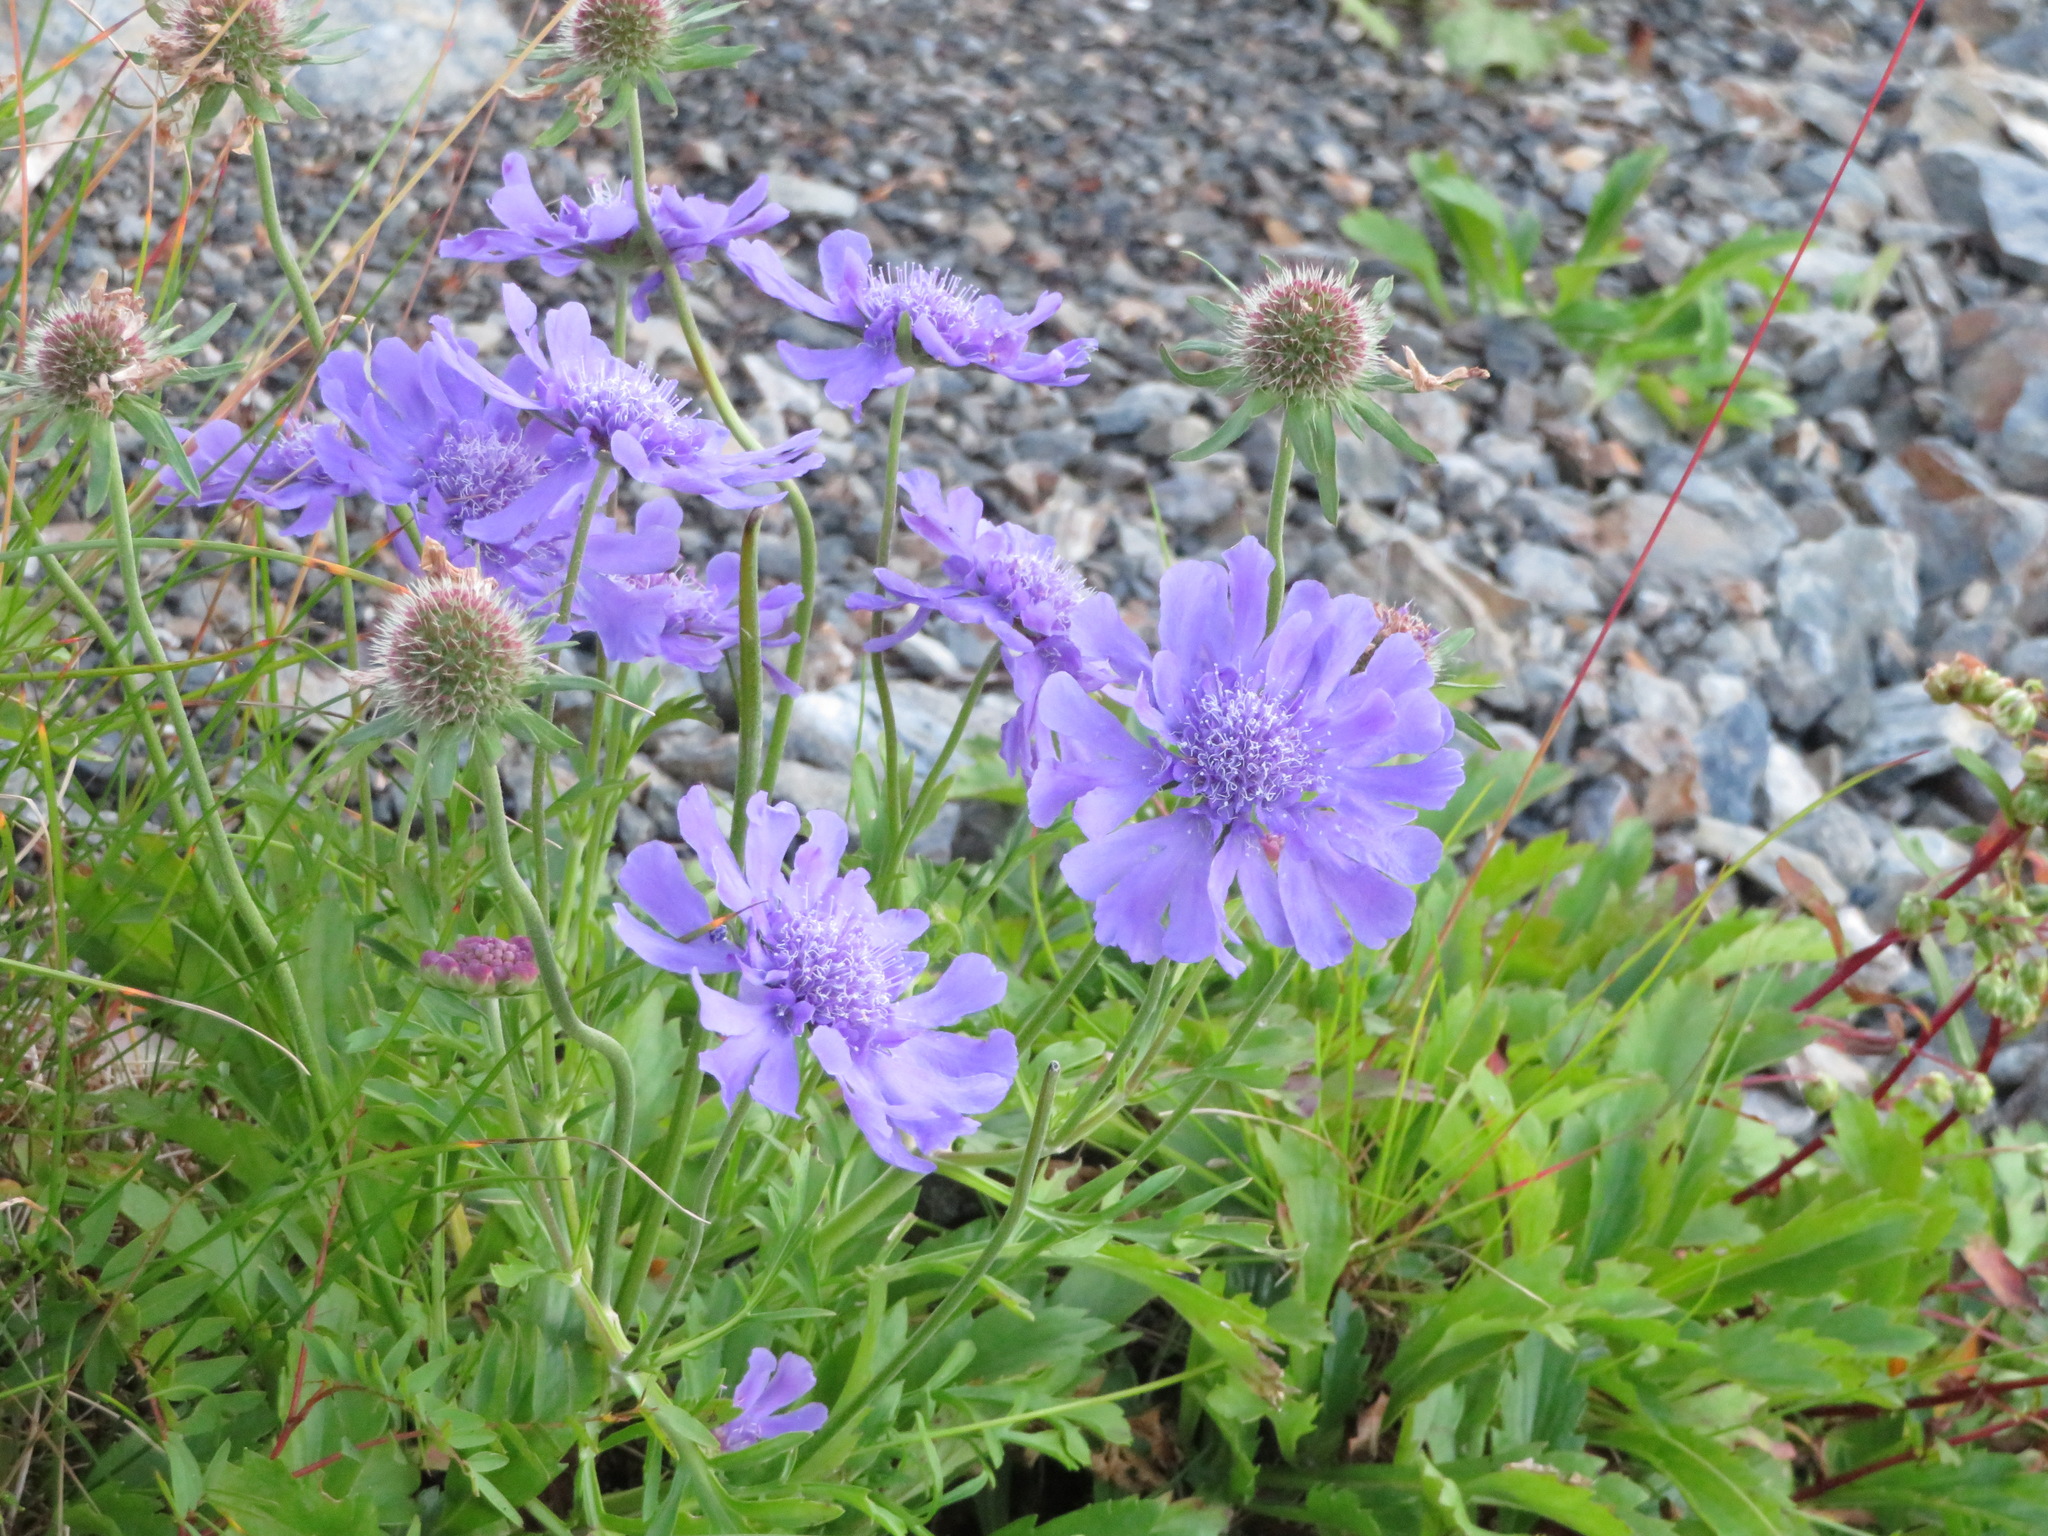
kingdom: Plantae
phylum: Tracheophyta
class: Magnoliopsida
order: Dipsacales
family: Caprifoliaceae
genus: Scabiosa
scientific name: Scabiosa japonica
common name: Pincushion-flower
